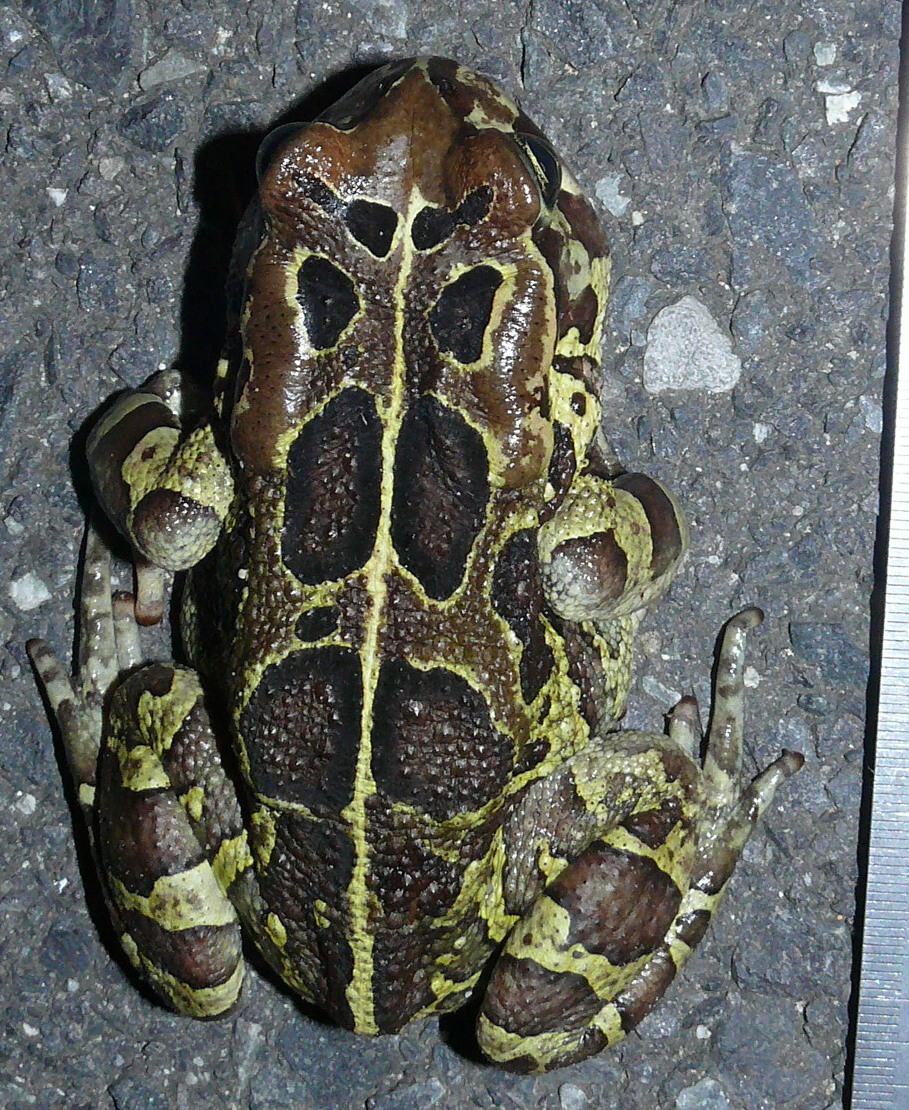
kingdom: Animalia
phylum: Chordata
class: Amphibia
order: Anura
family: Bufonidae
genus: Sclerophrys
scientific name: Sclerophrys pantherina
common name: Panther toad
